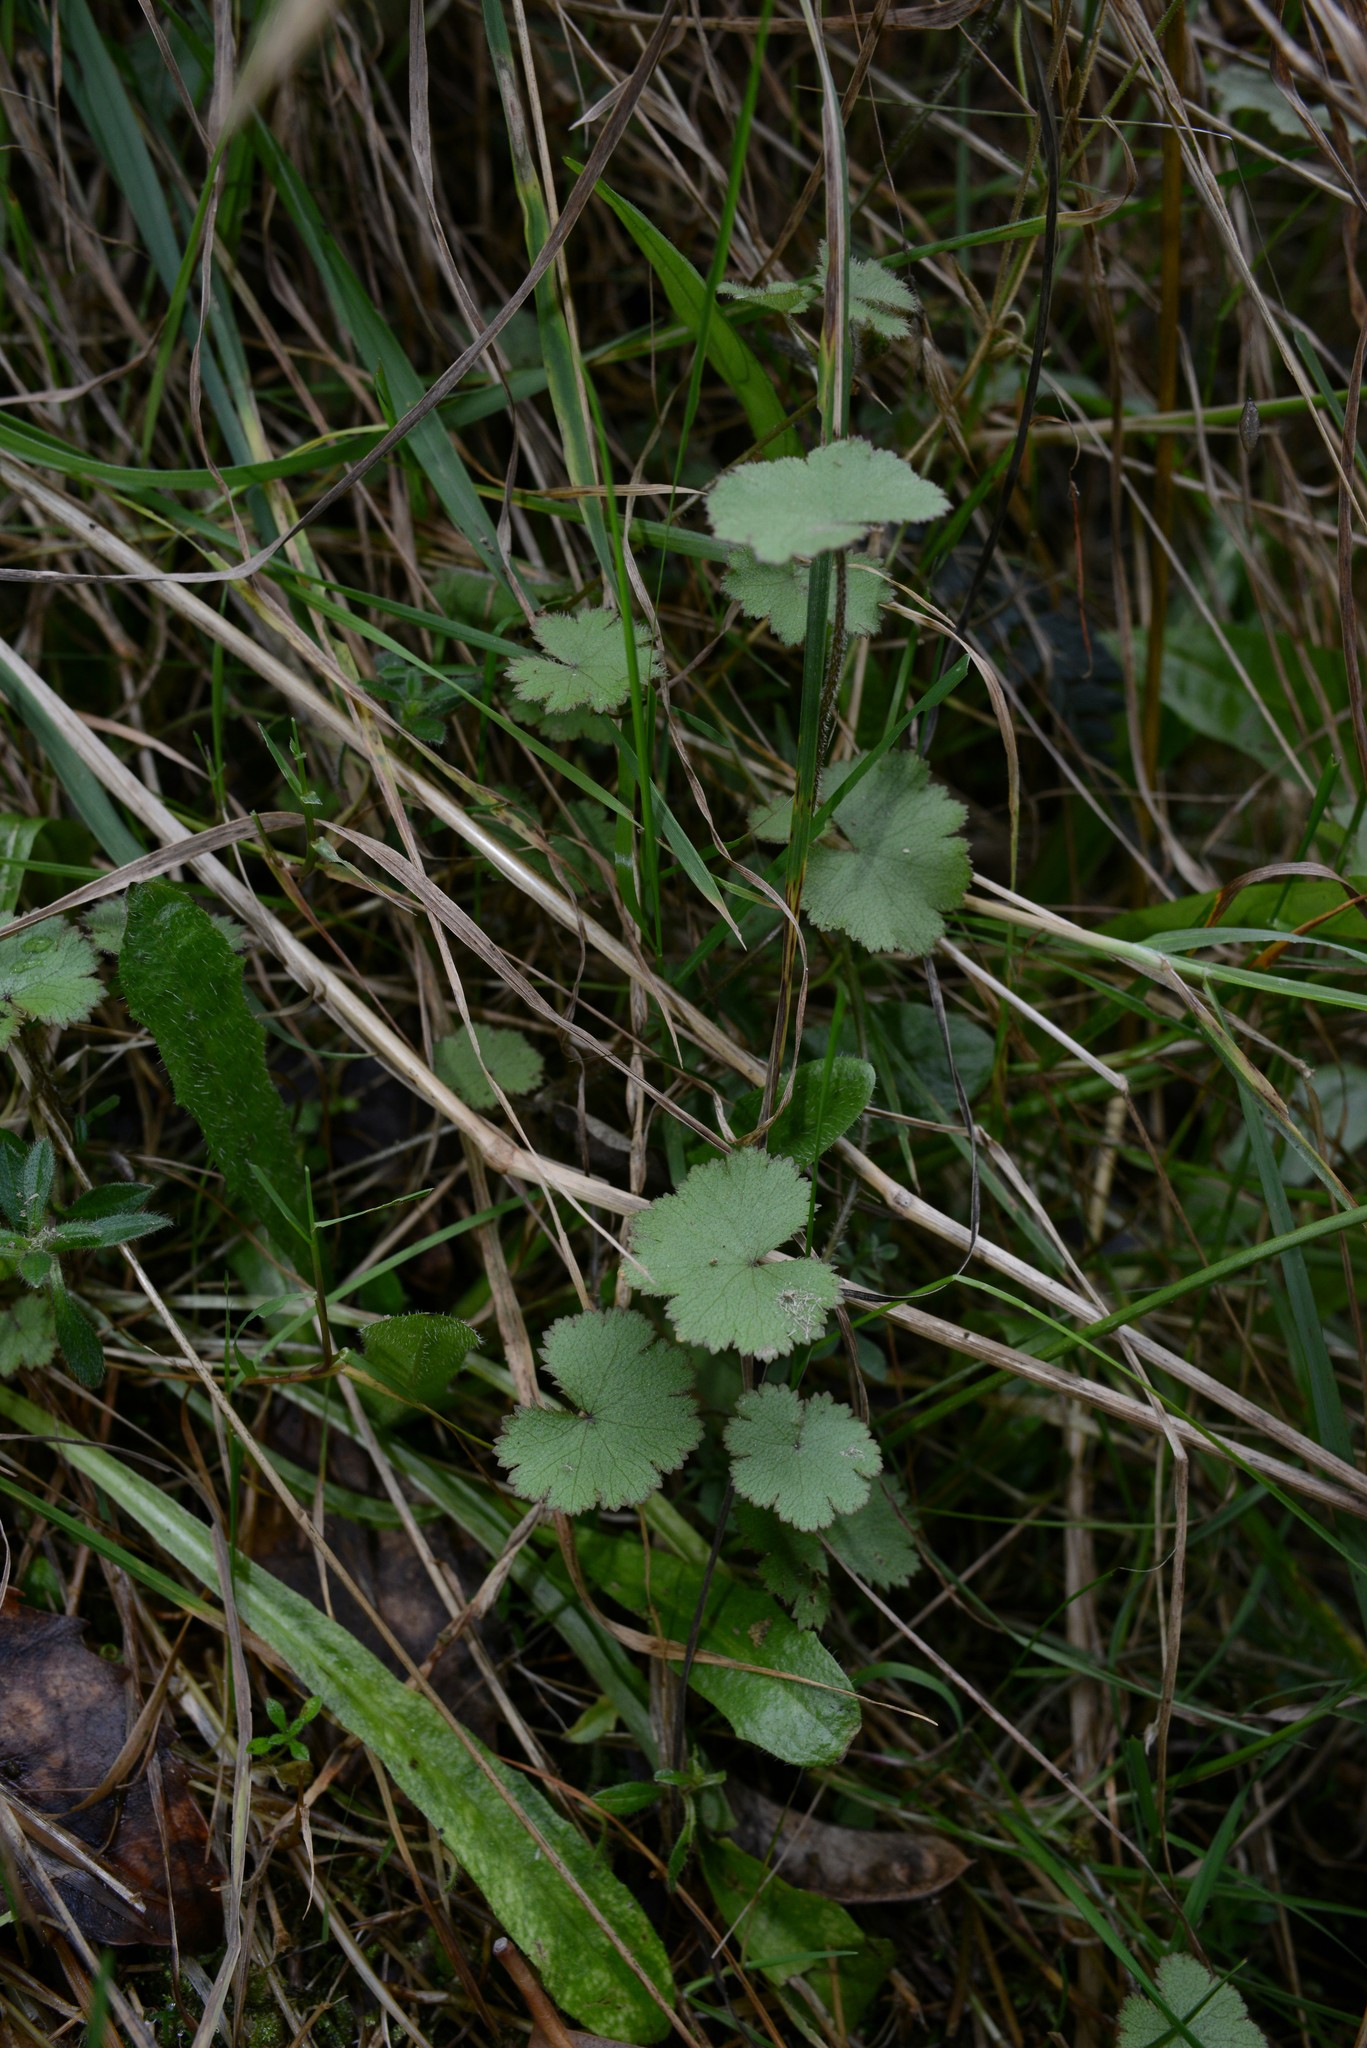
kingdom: Plantae
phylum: Tracheophyta
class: Magnoliopsida
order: Apiales
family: Araliaceae
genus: Hydrocotyle
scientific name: Hydrocotyle moschata
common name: Hairy pennywort
